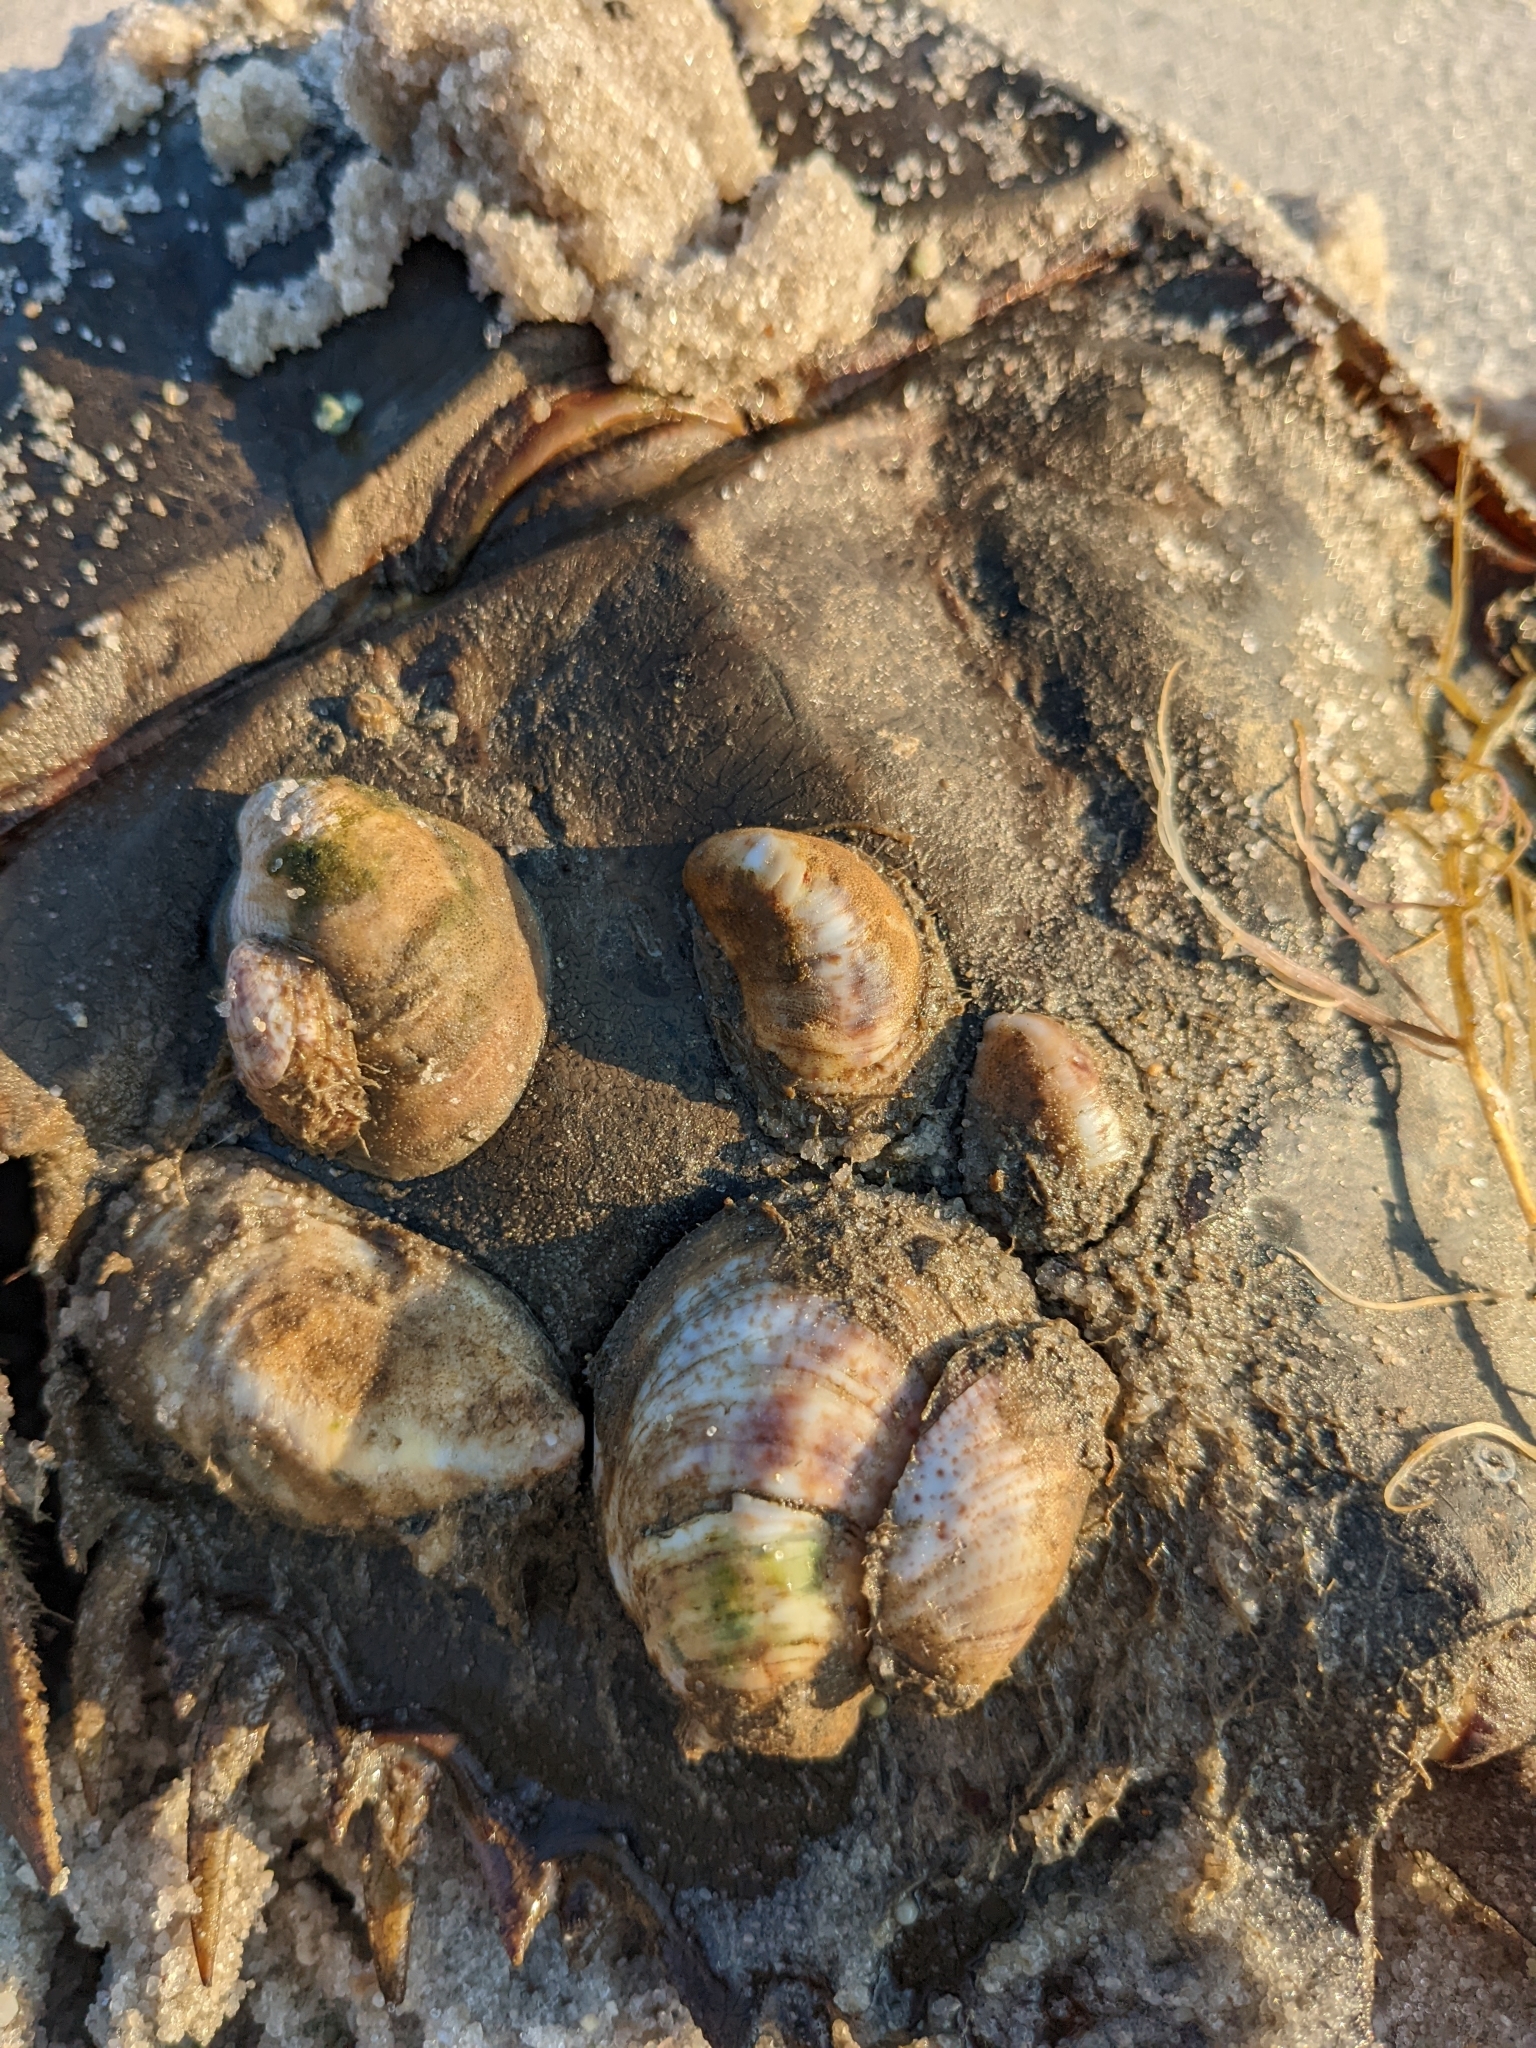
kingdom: Animalia
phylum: Mollusca
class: Gastropoda
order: Littorinimorpha
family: Calyptraeidae
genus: Crepidula
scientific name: Crepidula fornicata
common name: Slipper limpet
